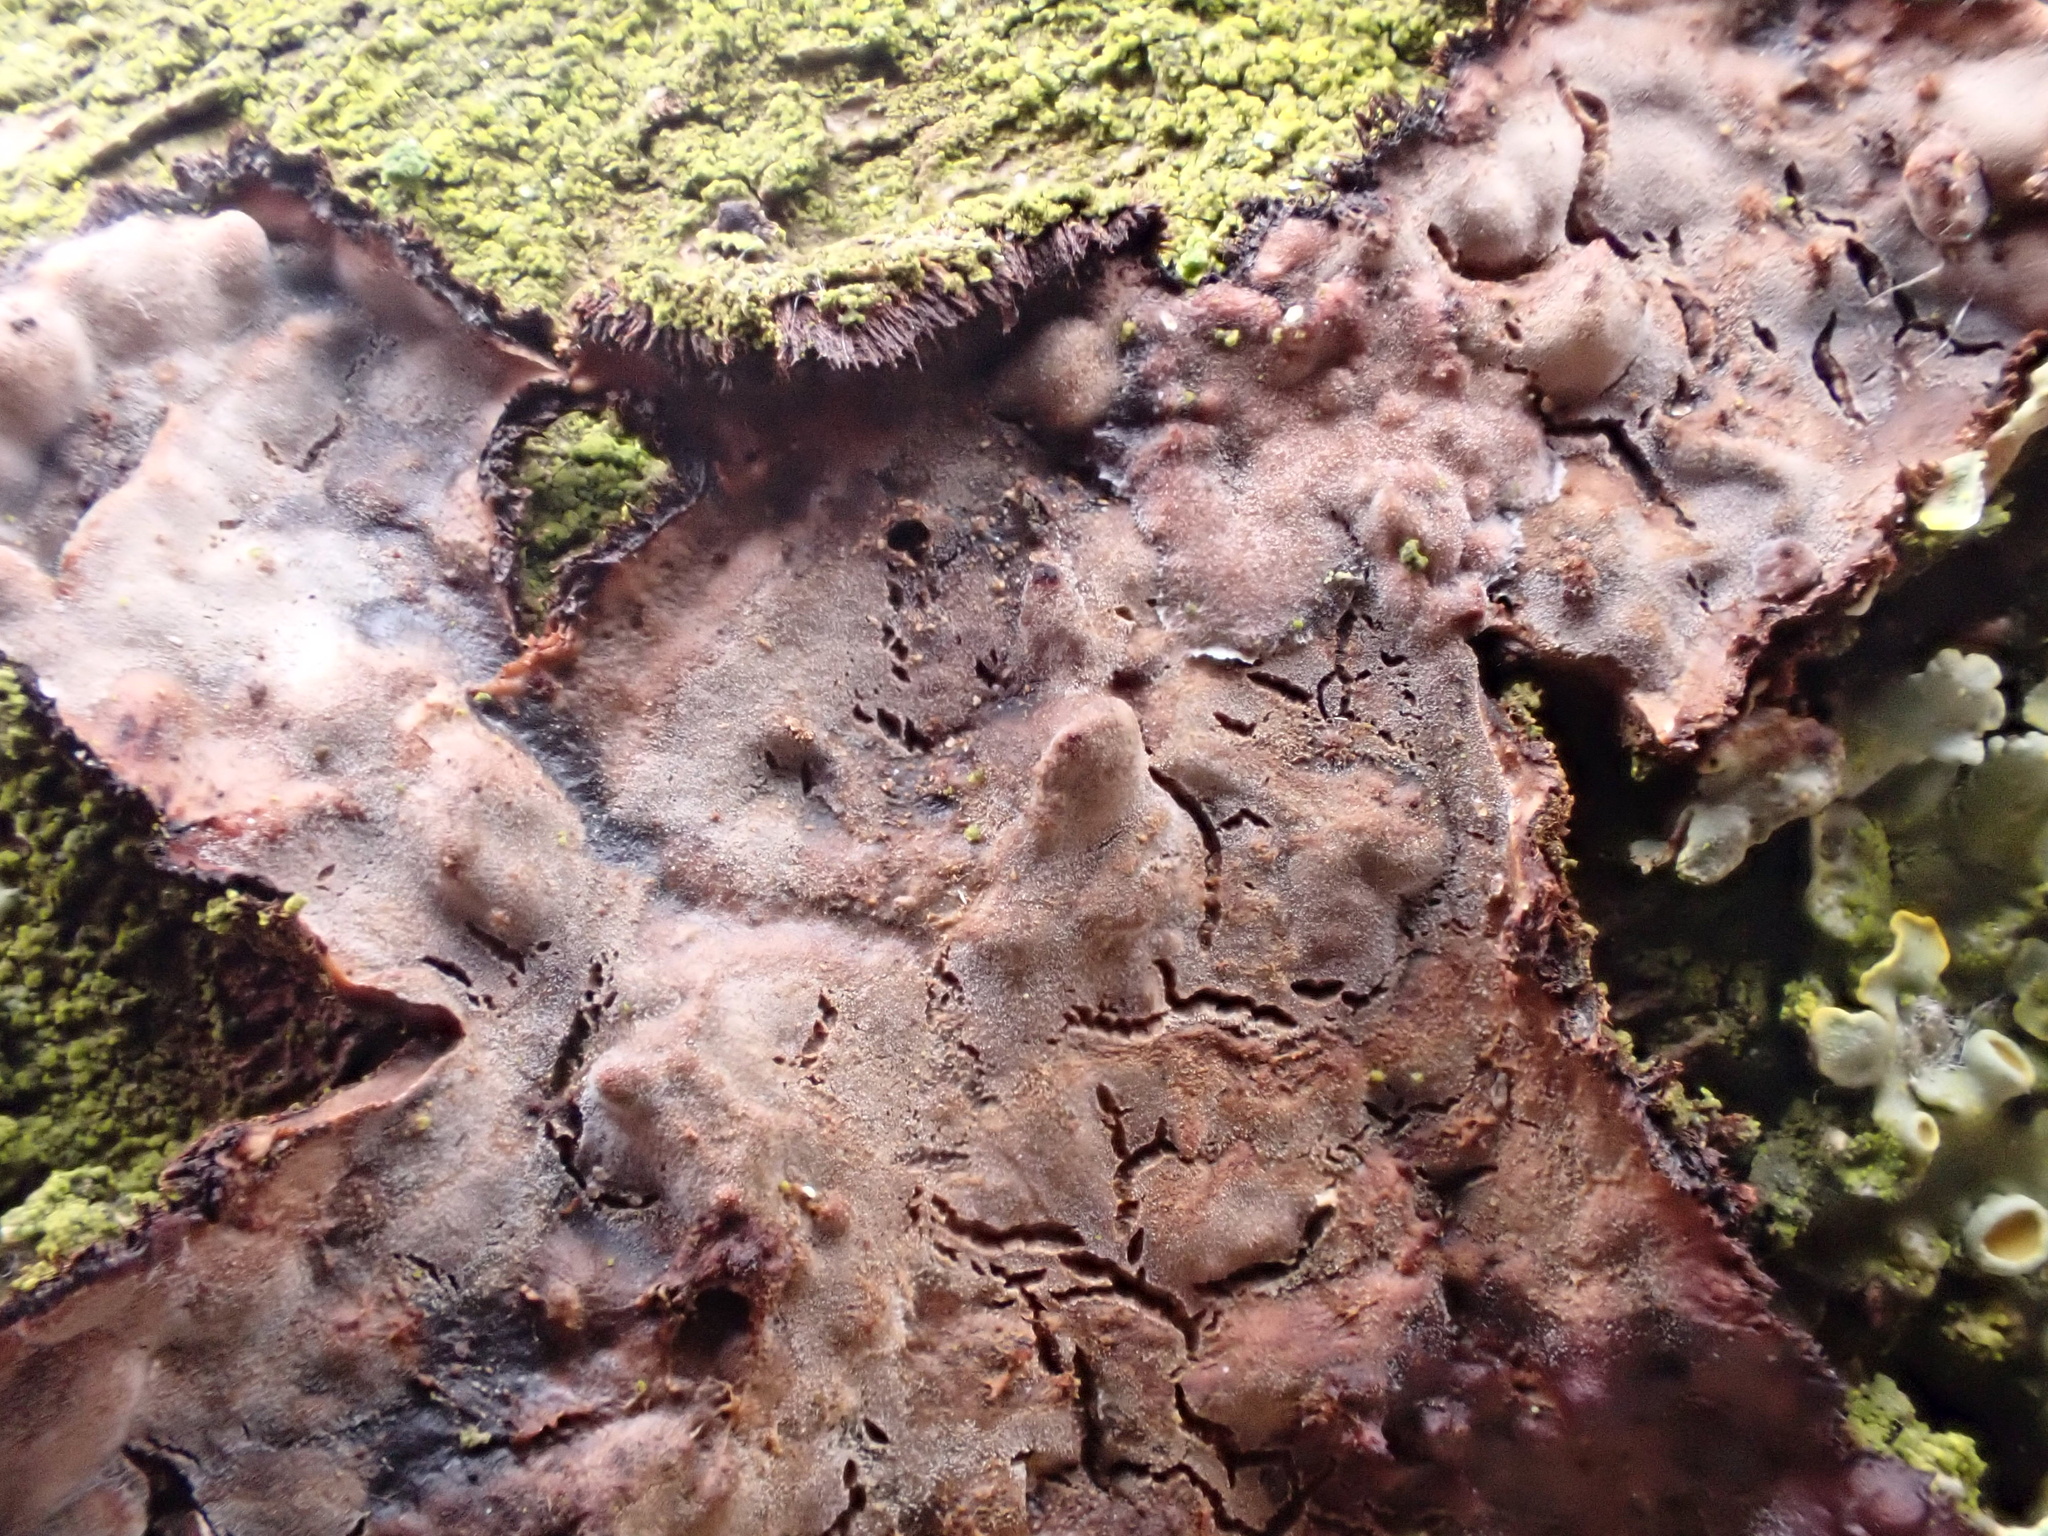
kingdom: Fungi
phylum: Basidiomycota
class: Agaricomycetes
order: Russulales
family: Peniophoraceae
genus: Peniophora
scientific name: Peniophora quercina
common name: Oak crust
